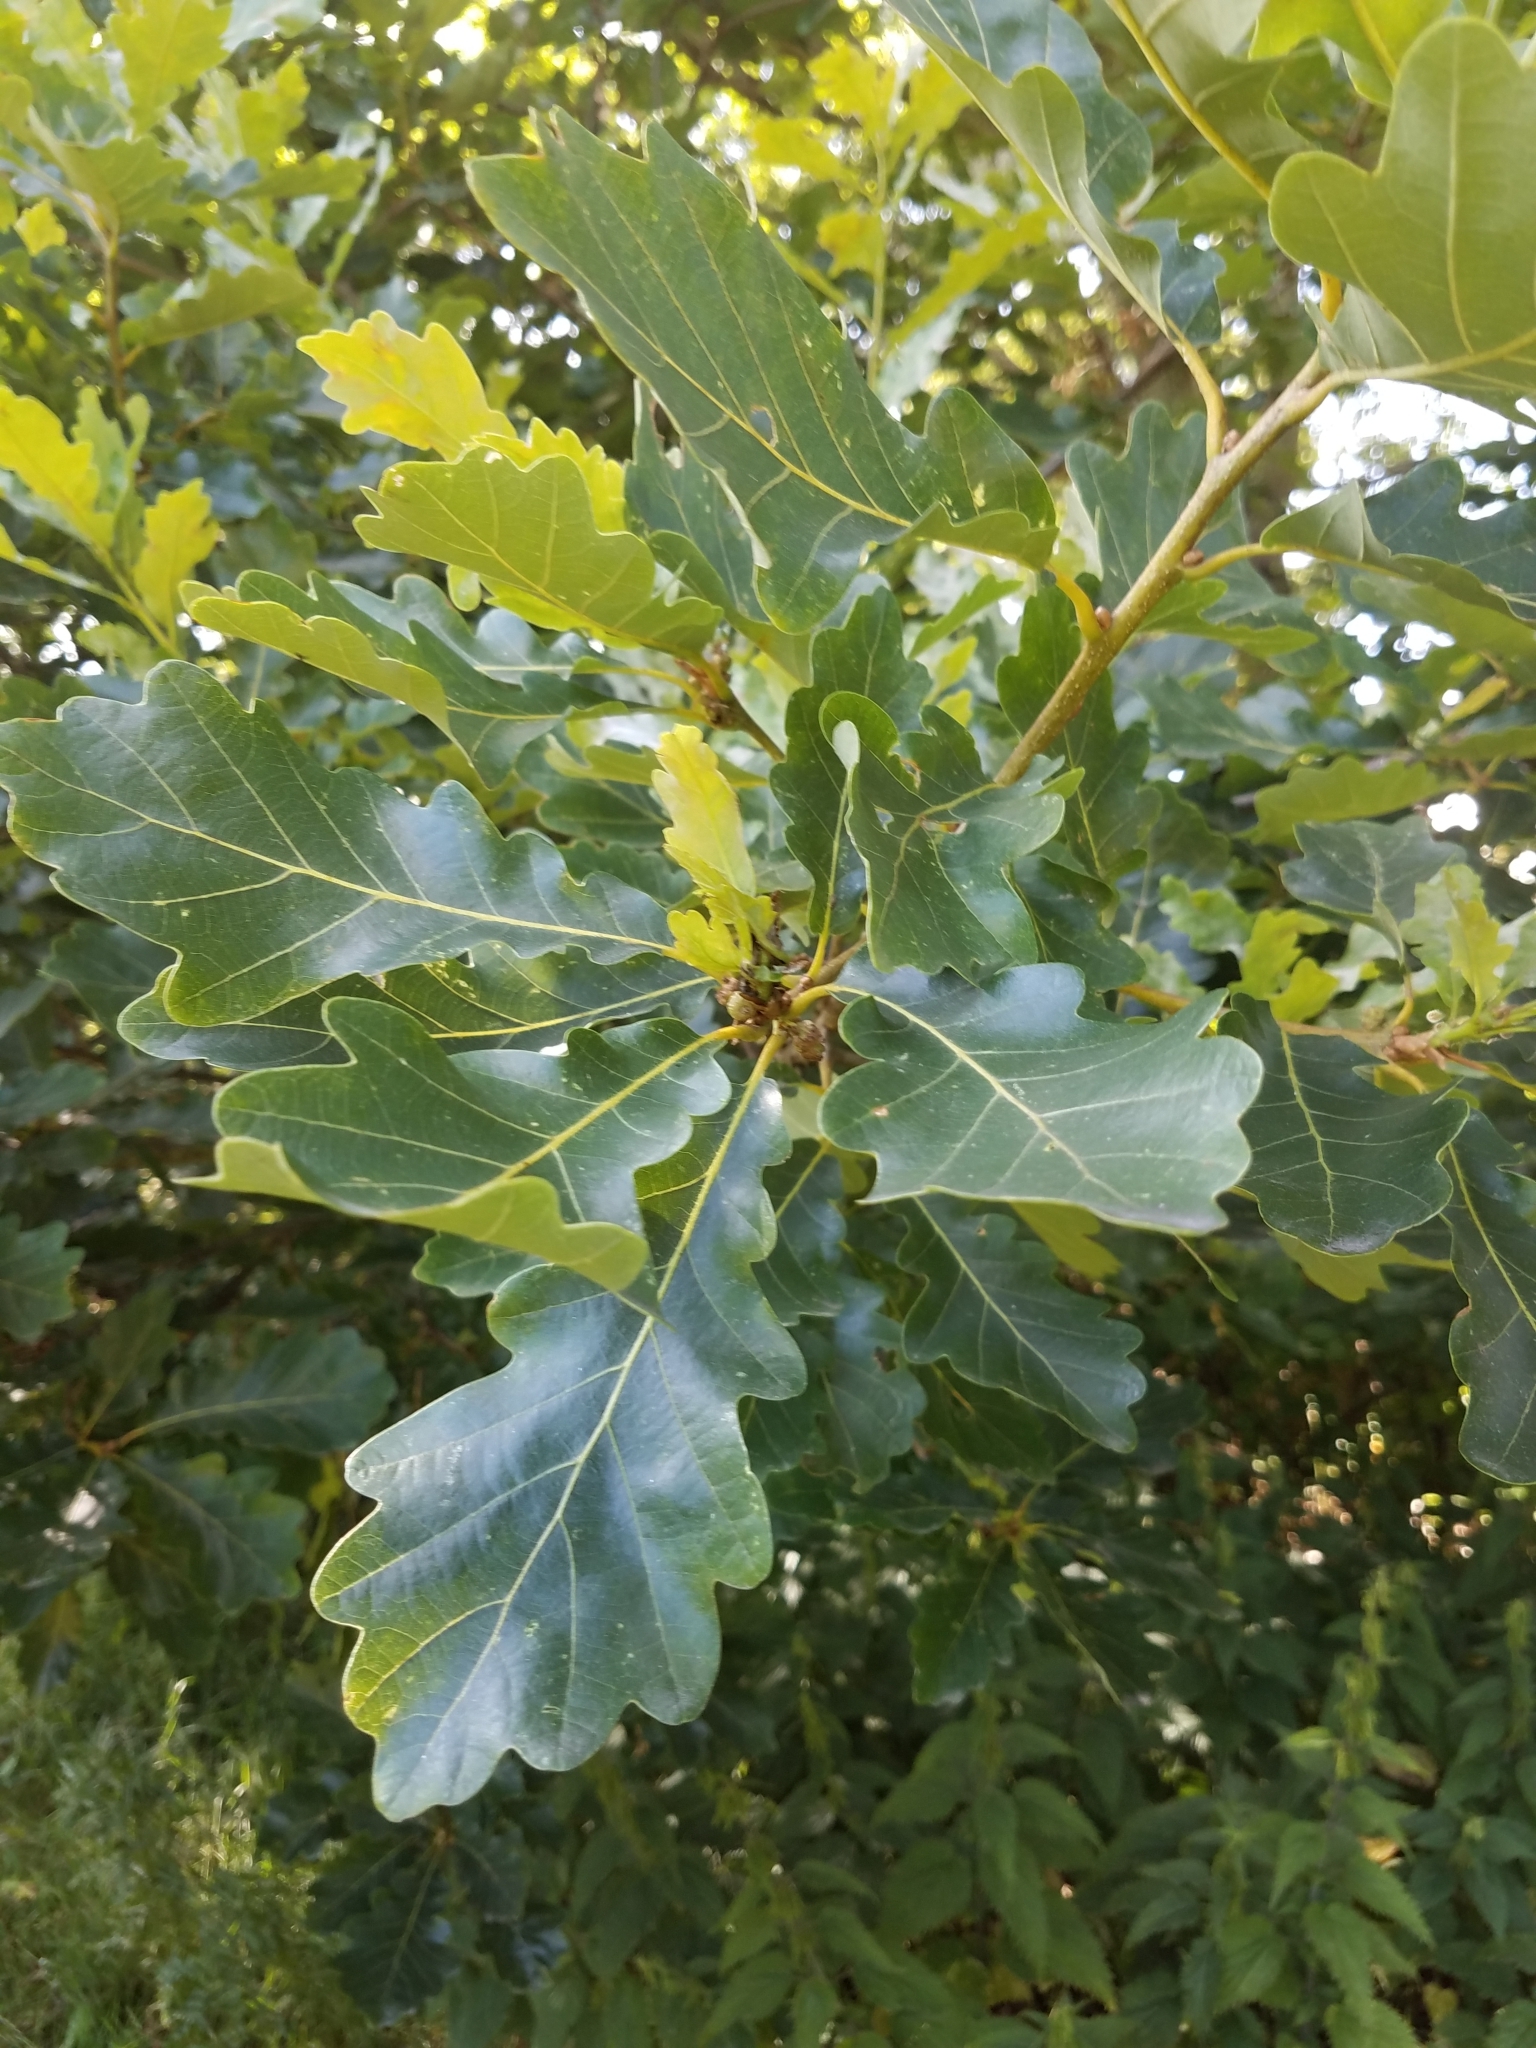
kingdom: Plantae
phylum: Tracheophyta
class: Magnoliopsida
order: Fagales
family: Fagaceae
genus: Quercus
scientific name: Quercus petraea
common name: Sessile oak
